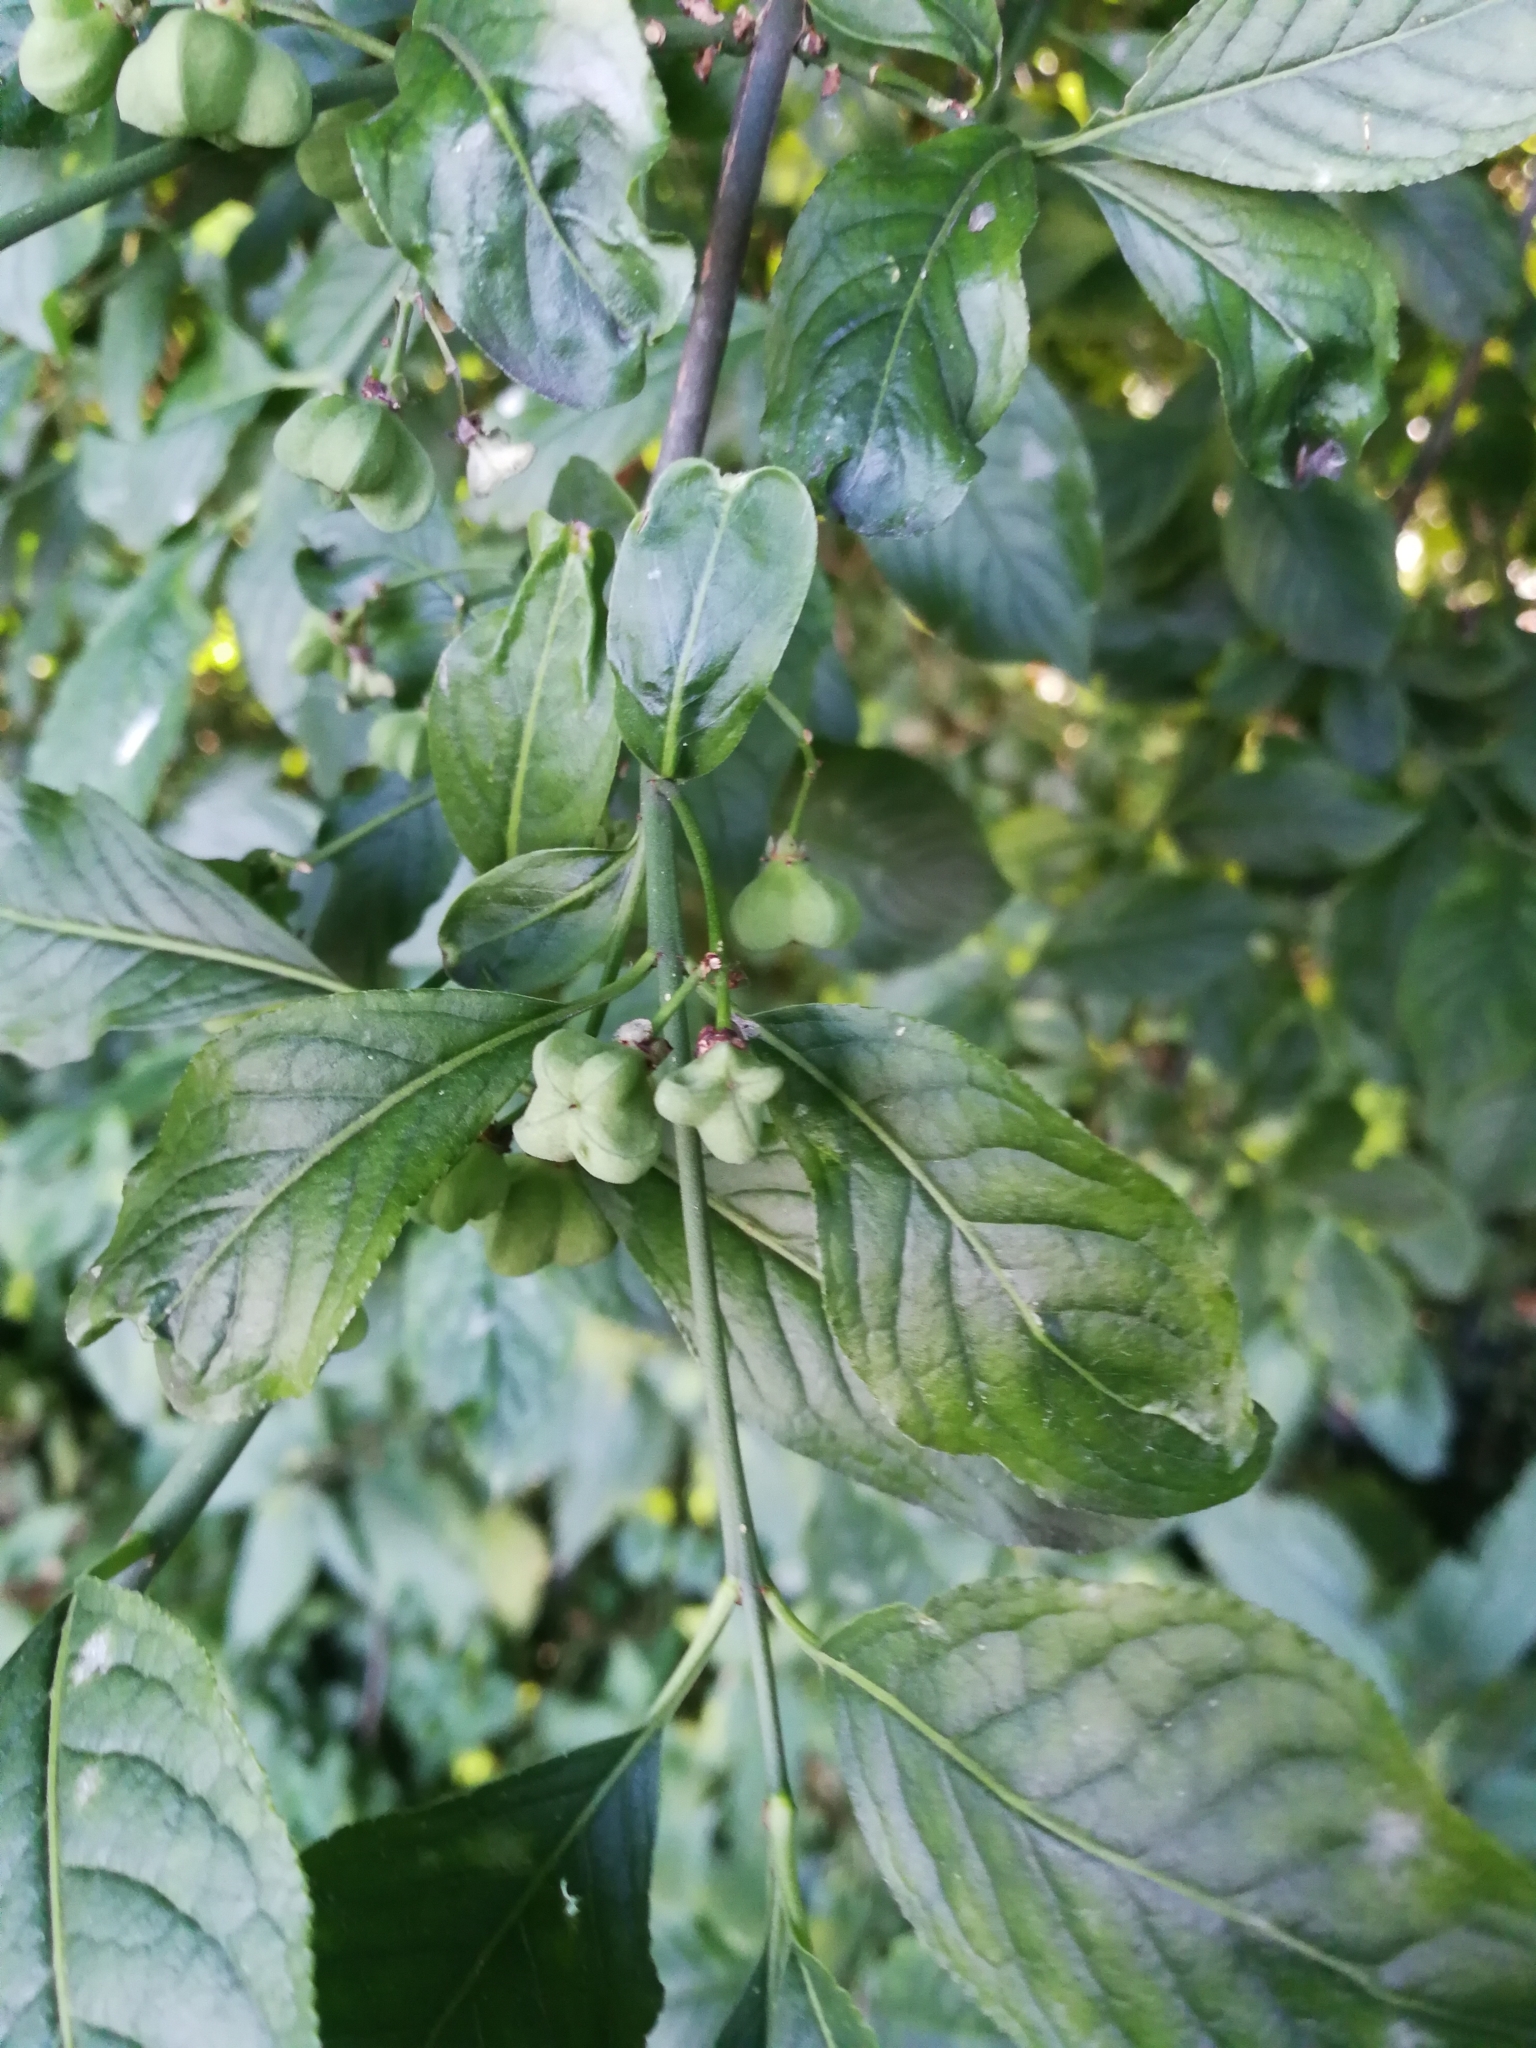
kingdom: Plantae
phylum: Tracheophyta
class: Magnoliopsida
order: Celastrales
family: Celastraceae
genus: Euonymus
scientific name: Euonymus europaeus
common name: Spindle
